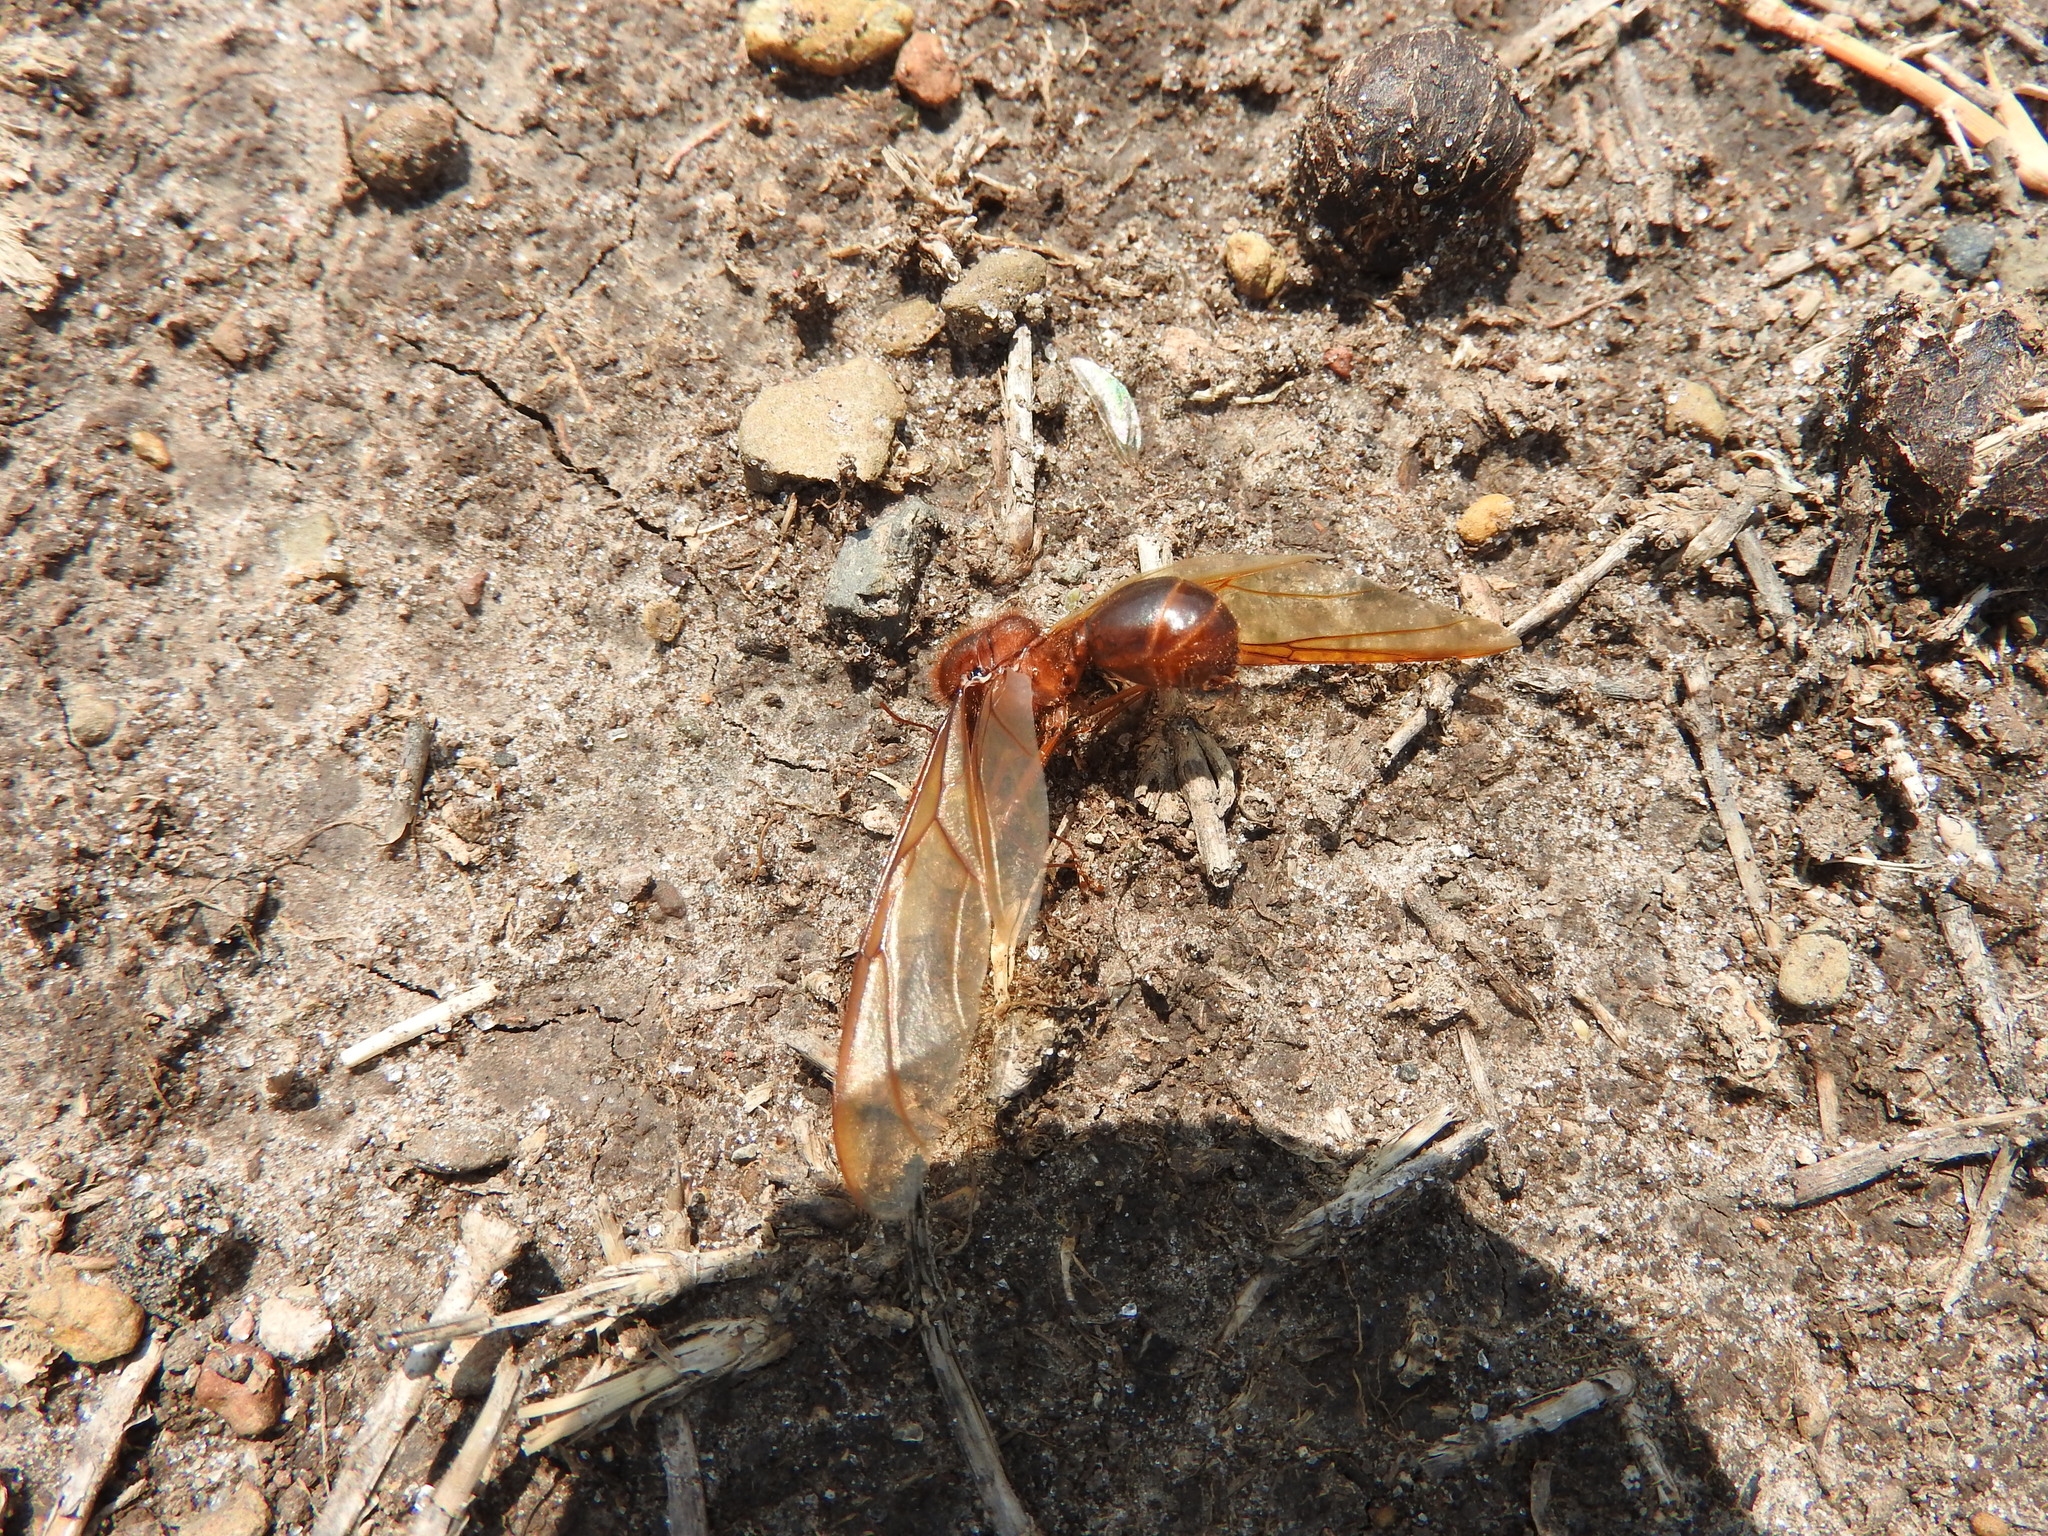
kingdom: Animalia
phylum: Arthropoda
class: Insecta
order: Hymenoptera
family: Formicidae
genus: Atta
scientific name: Atta mexicana
